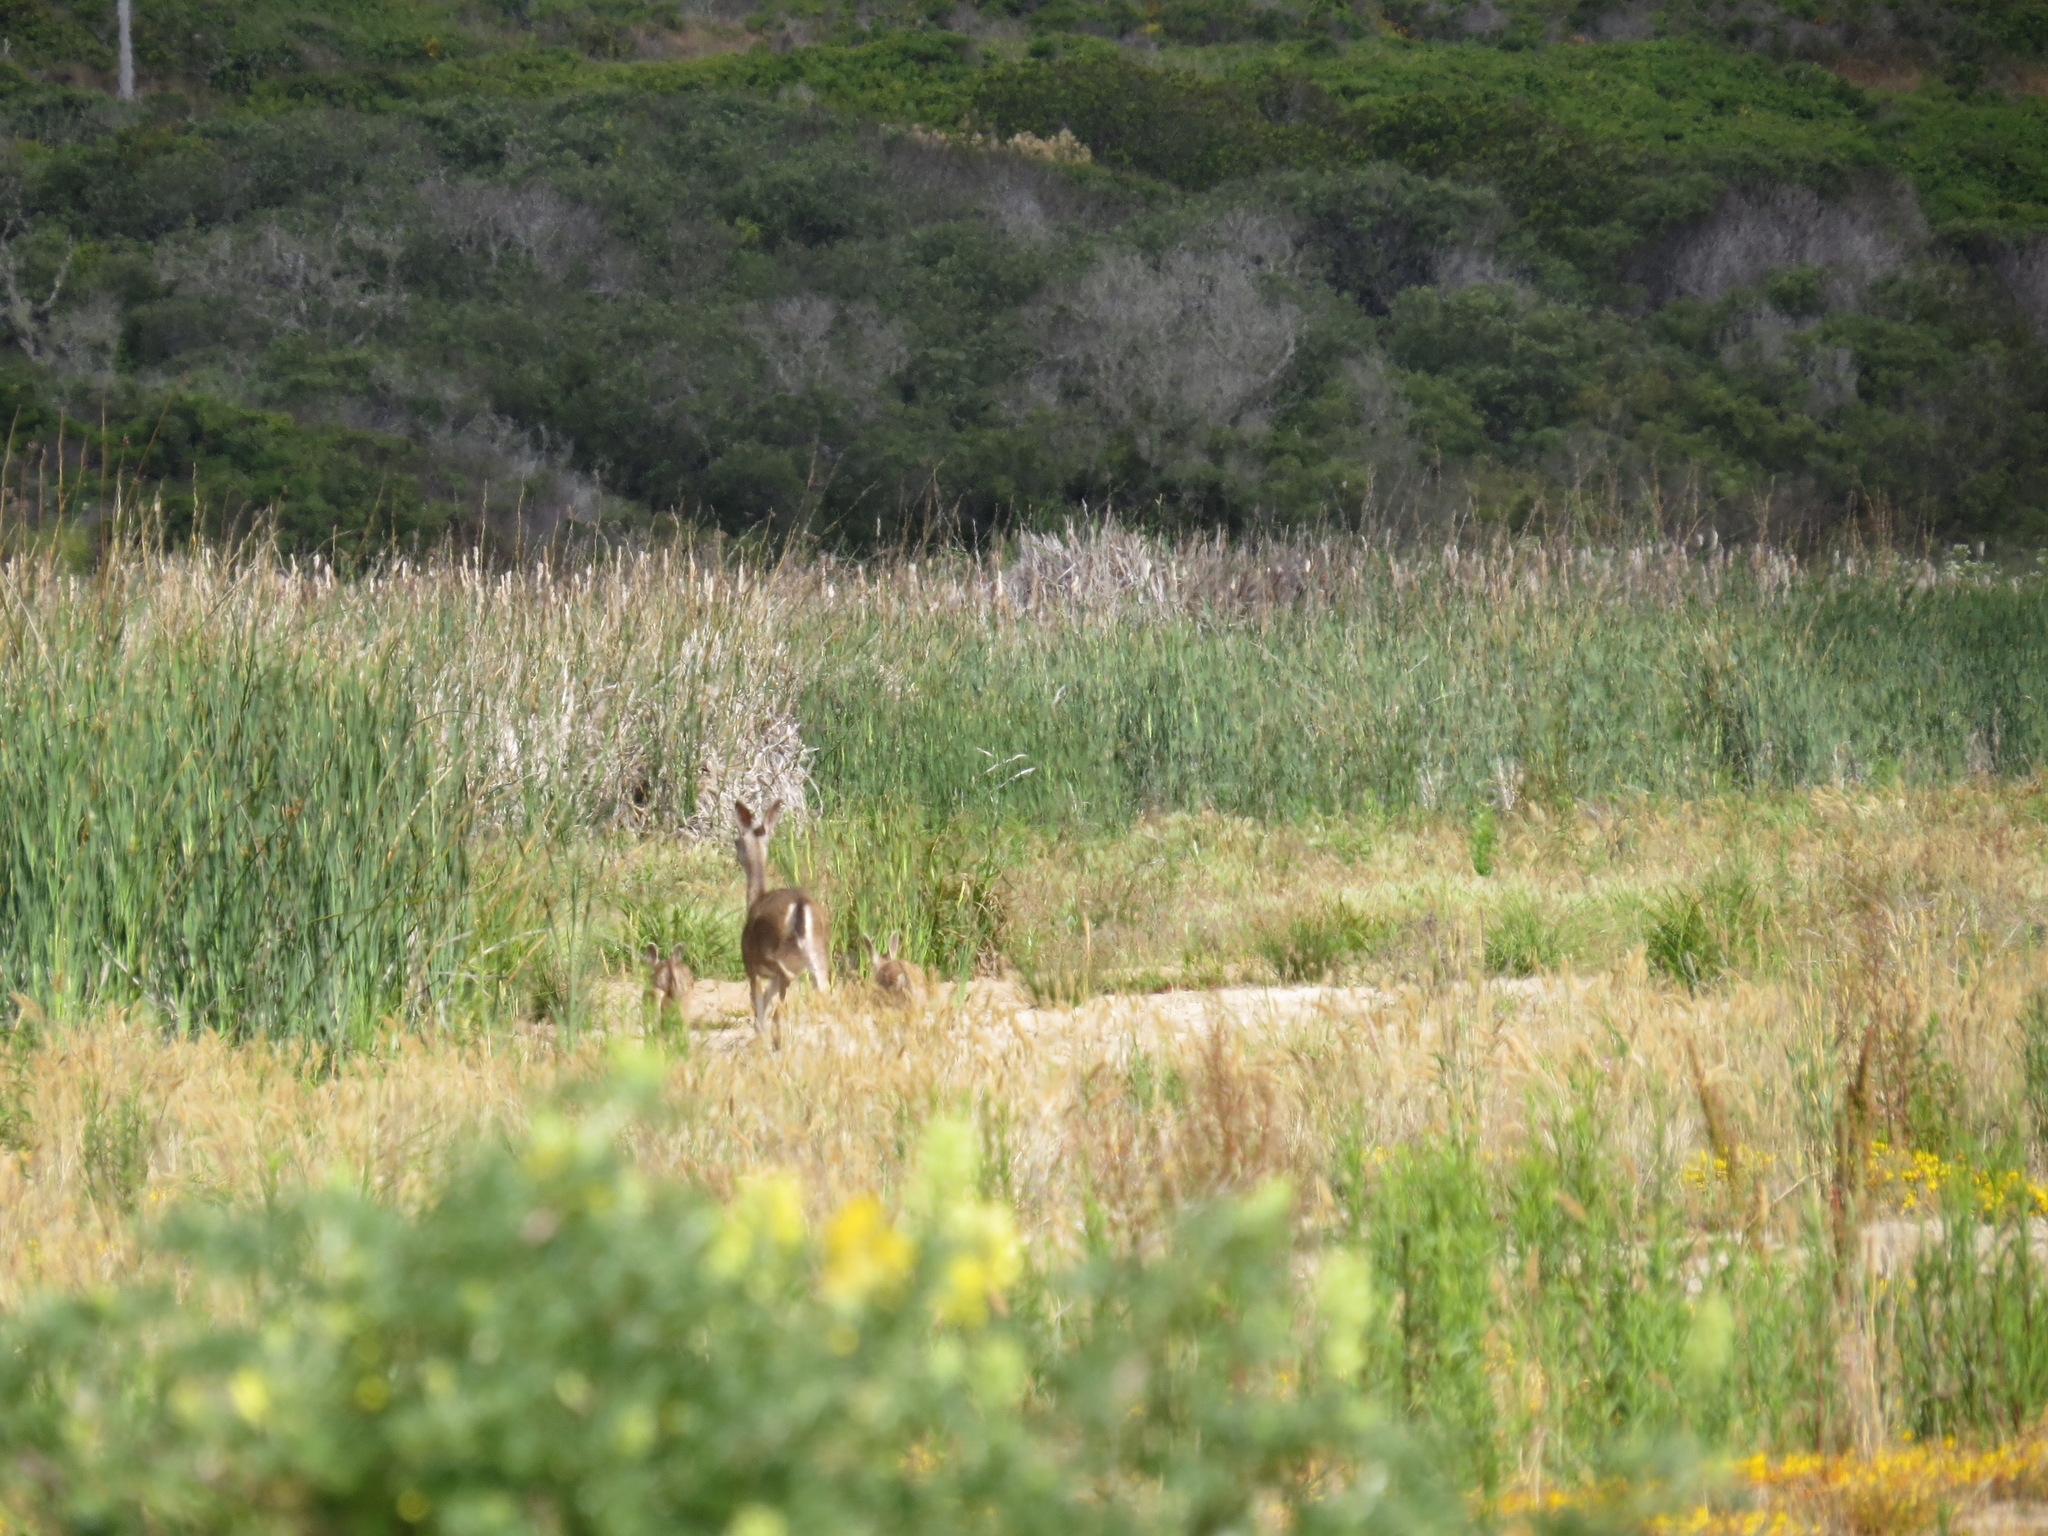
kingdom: Animalia
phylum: Chordata
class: Mammalia
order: Artiodactyla
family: Cervidae
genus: Odocoileus
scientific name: Odocoileus hemionus
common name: Mule deer
